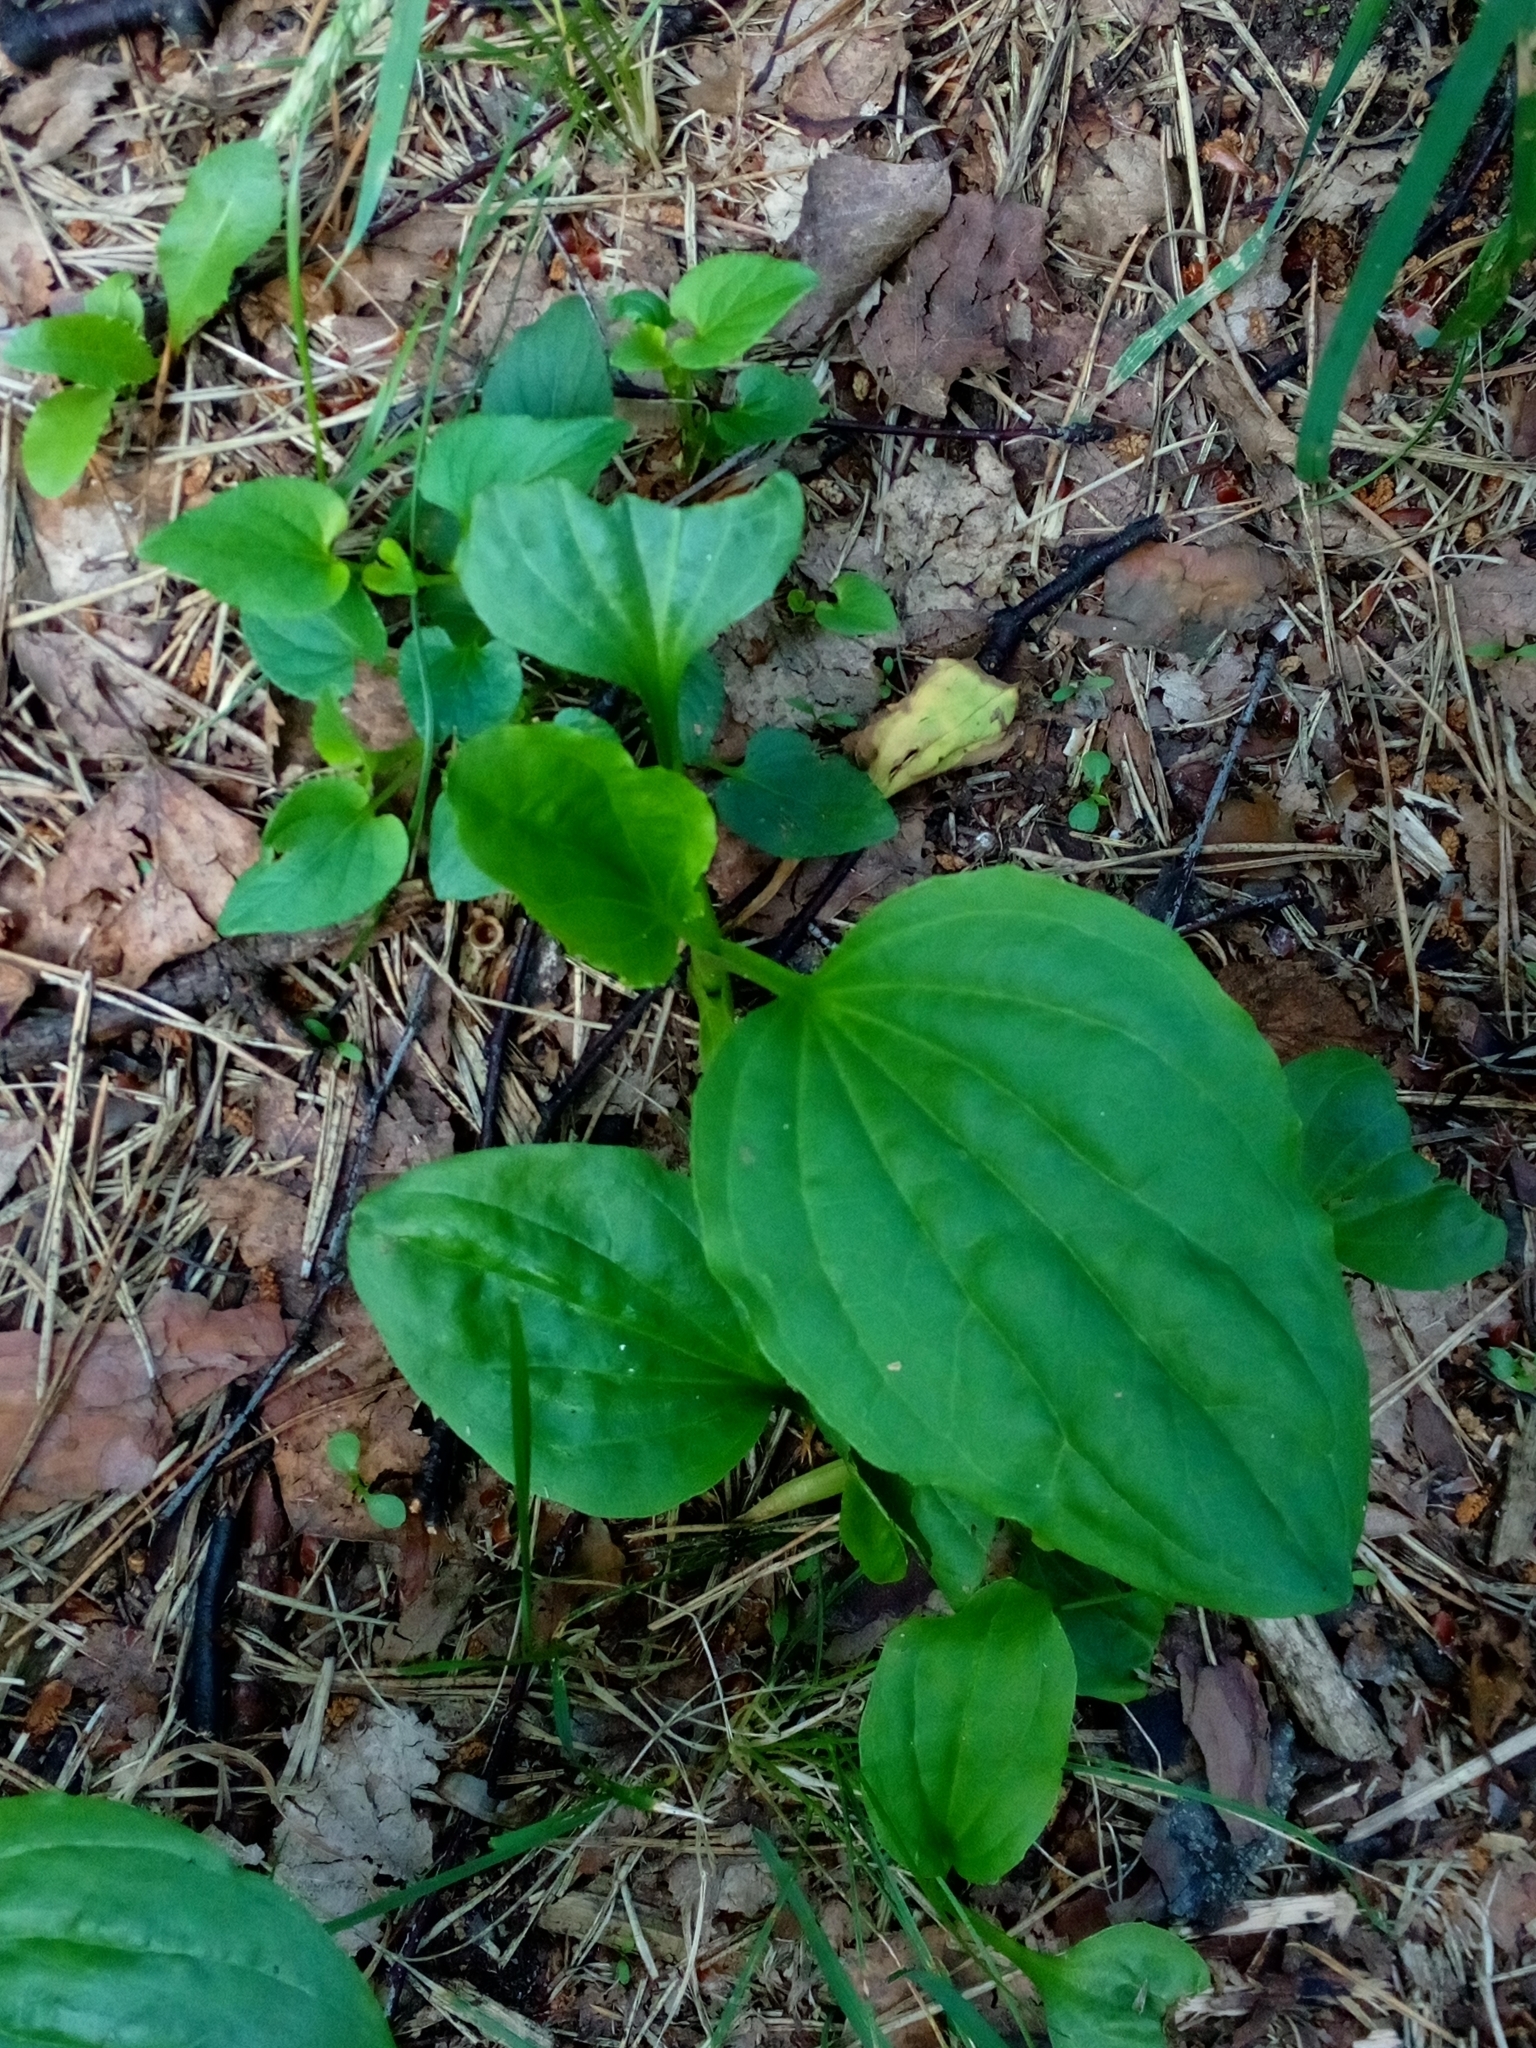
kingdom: Plantae
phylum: Tracheophyta
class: Magnoliopsida
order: Lamiales
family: Plantaginaceae
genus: Plantago
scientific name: Plantago major
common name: Common plantain
